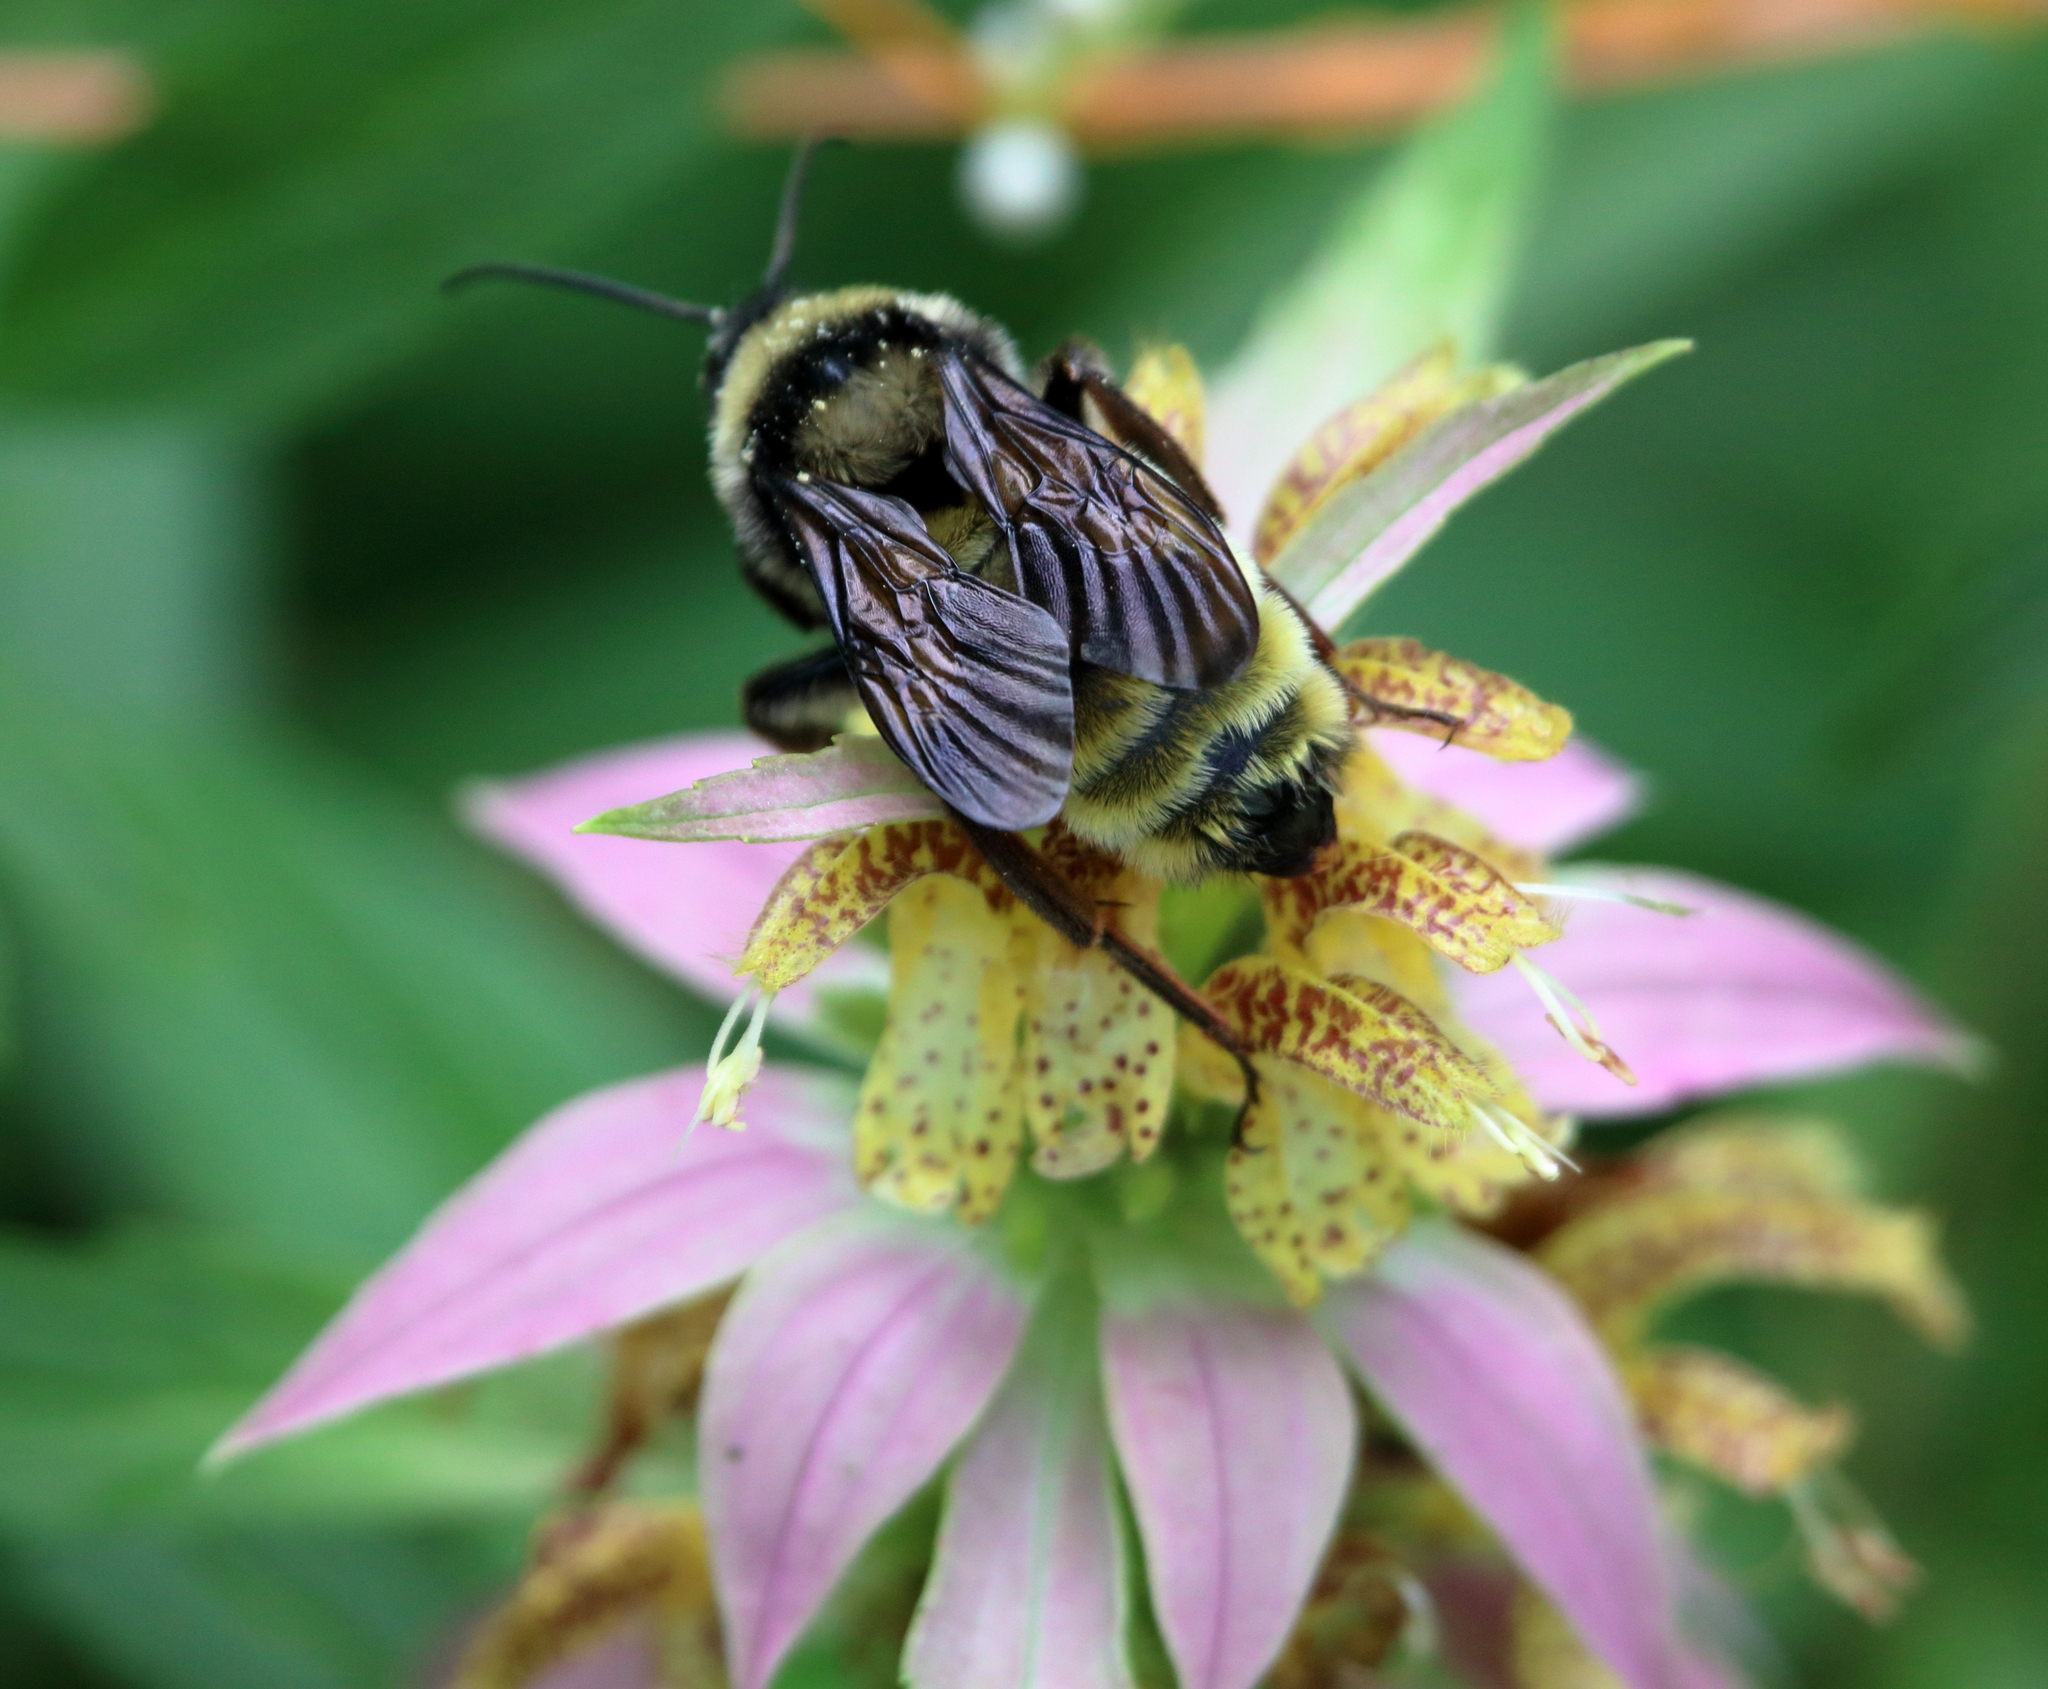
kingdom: Animalia
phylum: Arthropoda
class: Insecta
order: Hymenoptera
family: Apidae
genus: Bombus
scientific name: Bombus pensylvanicus
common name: Bumble bee
